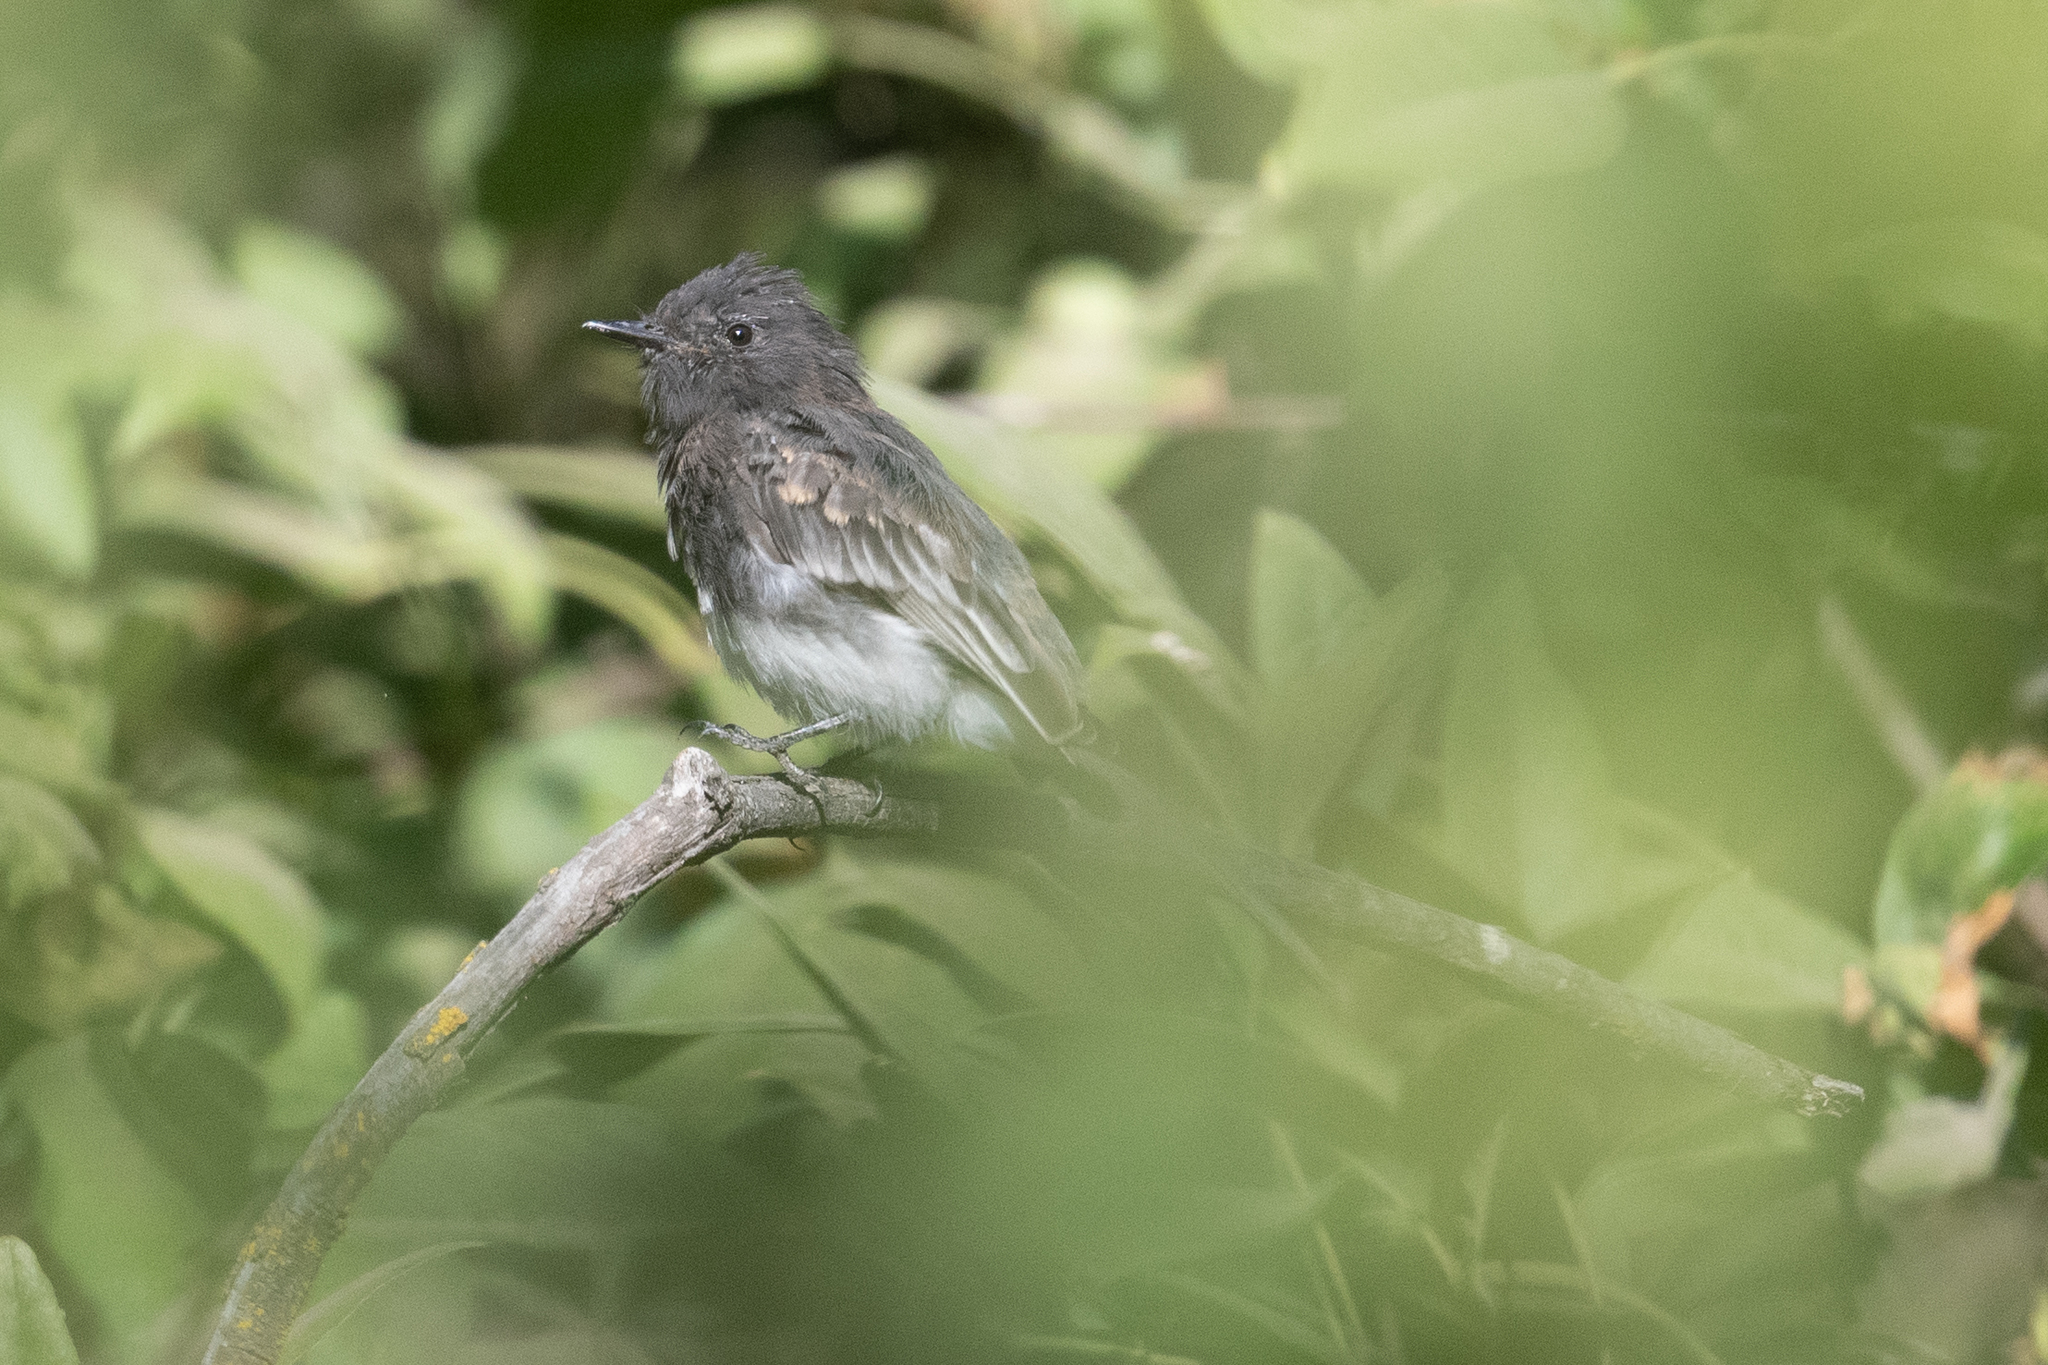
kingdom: Animalia
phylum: Chordata
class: Aves
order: Passeriformes
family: Tyrannidae
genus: Sayornis
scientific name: Sayornis nigricans
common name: Black phoebe
